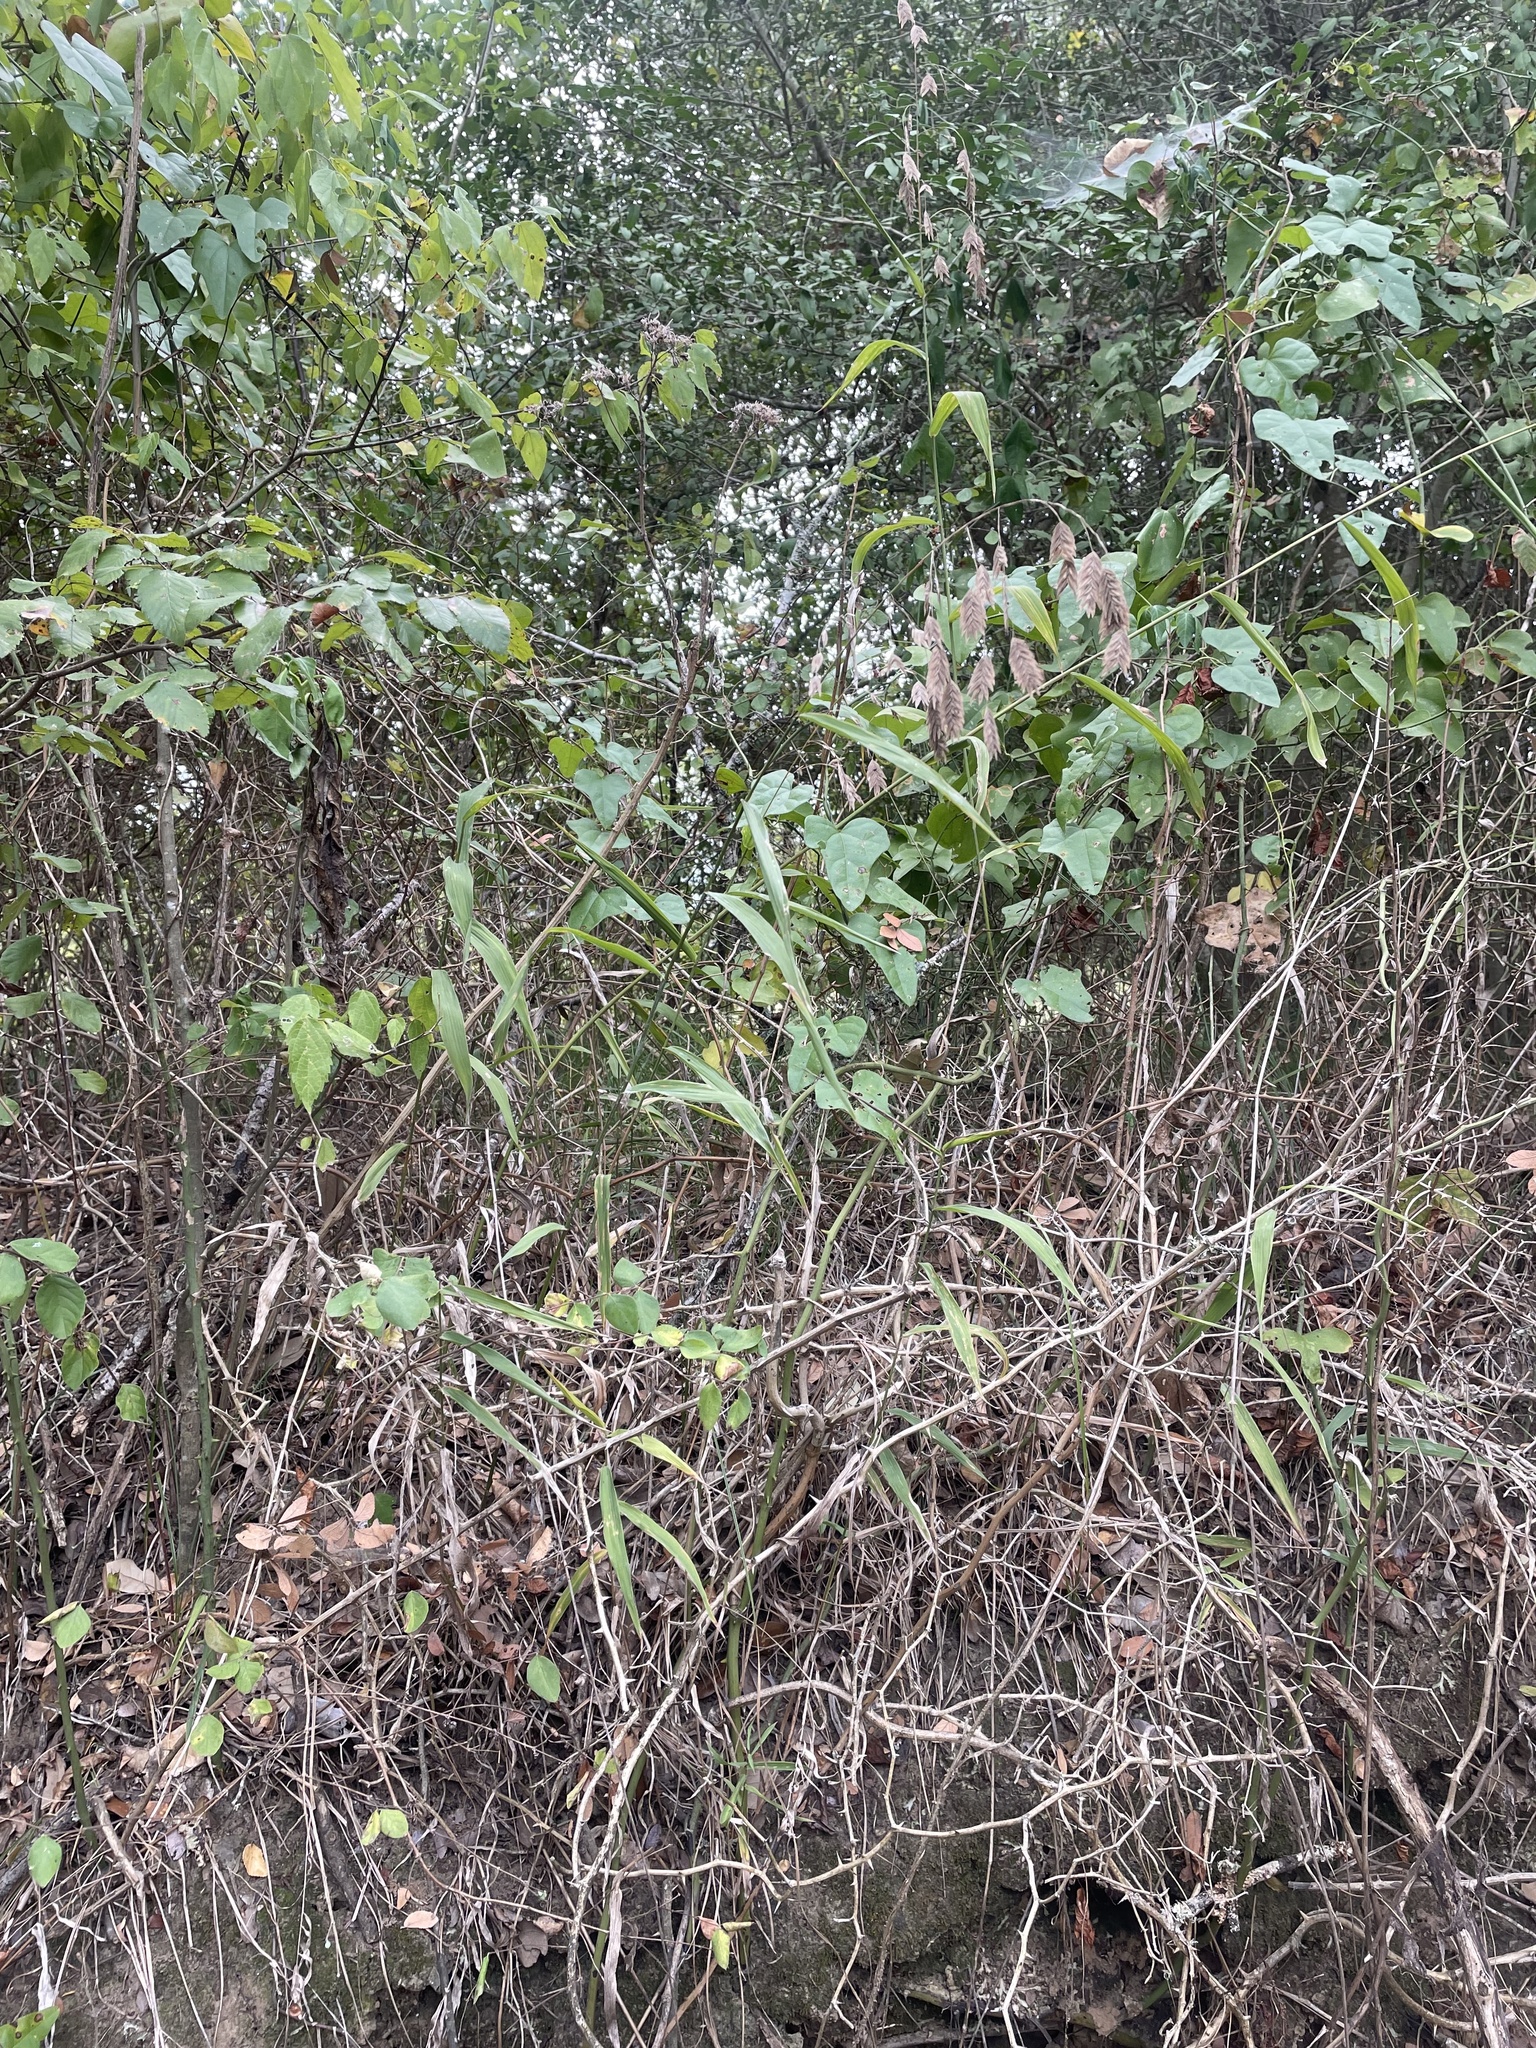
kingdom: Plantae
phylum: Tracheophyta
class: Liliopsida
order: Poales
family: Poaceae
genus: Chasmanthium
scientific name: Chasmanthium latifolium
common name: Broad-leaved chasmanthium
